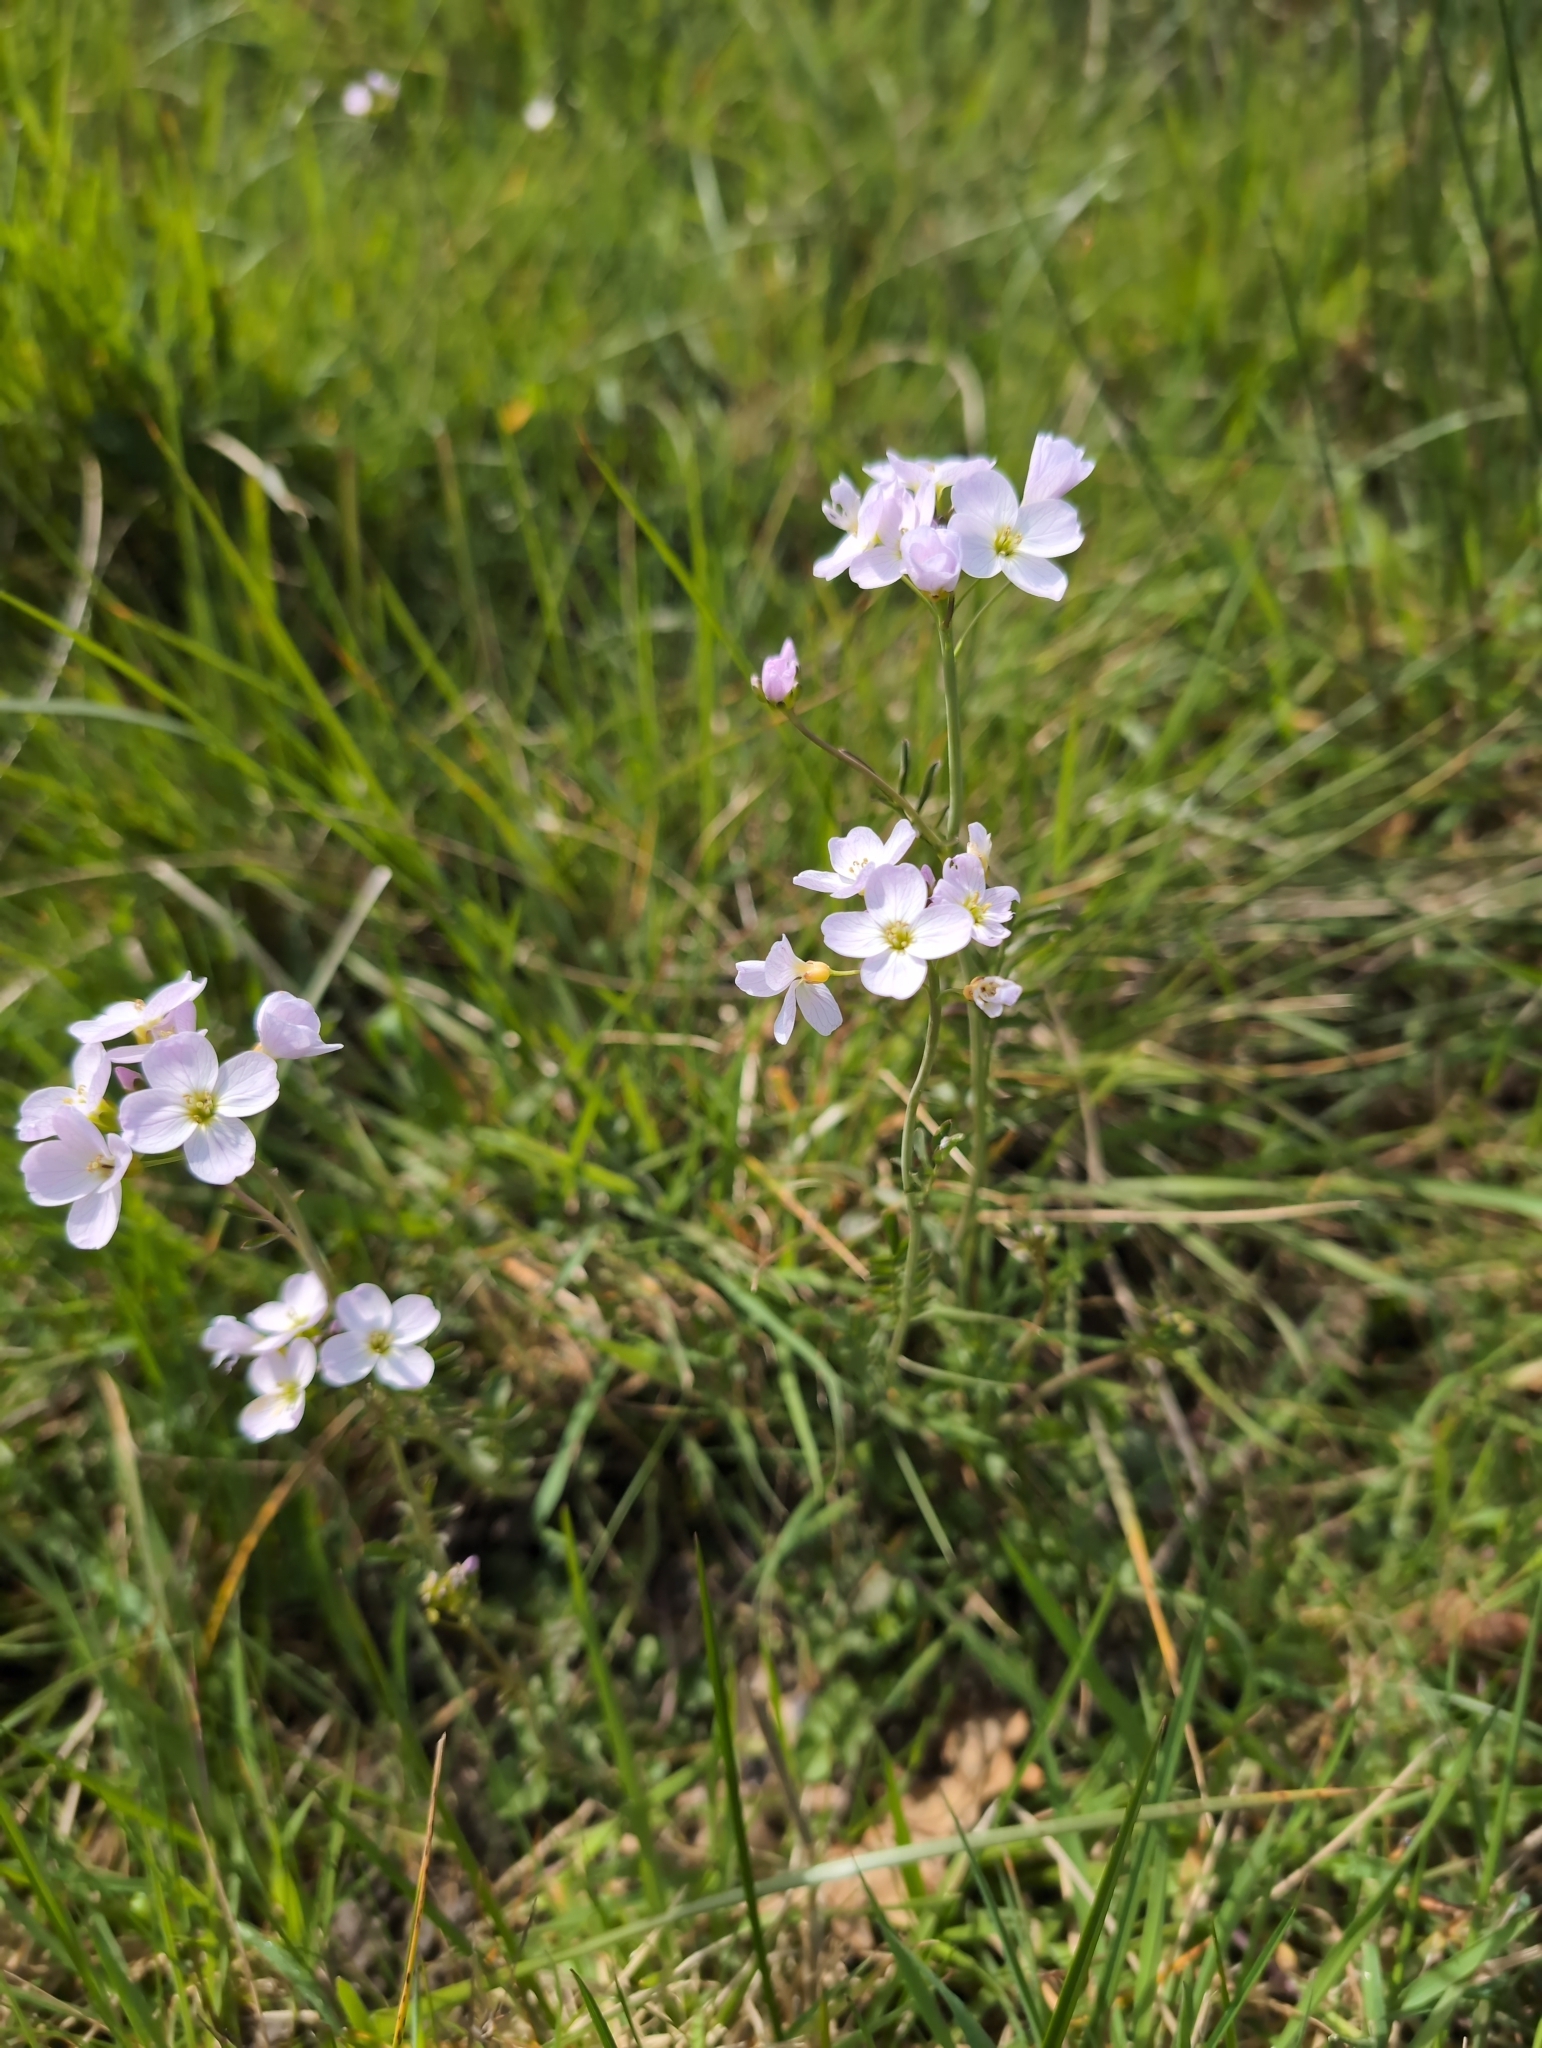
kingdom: Plantae
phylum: Tracheophyta
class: Magnoliopsida
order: Brassicales
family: Brassicaceae
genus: Cardamine
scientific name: Cardamine pratensis
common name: Cuckoo flower
